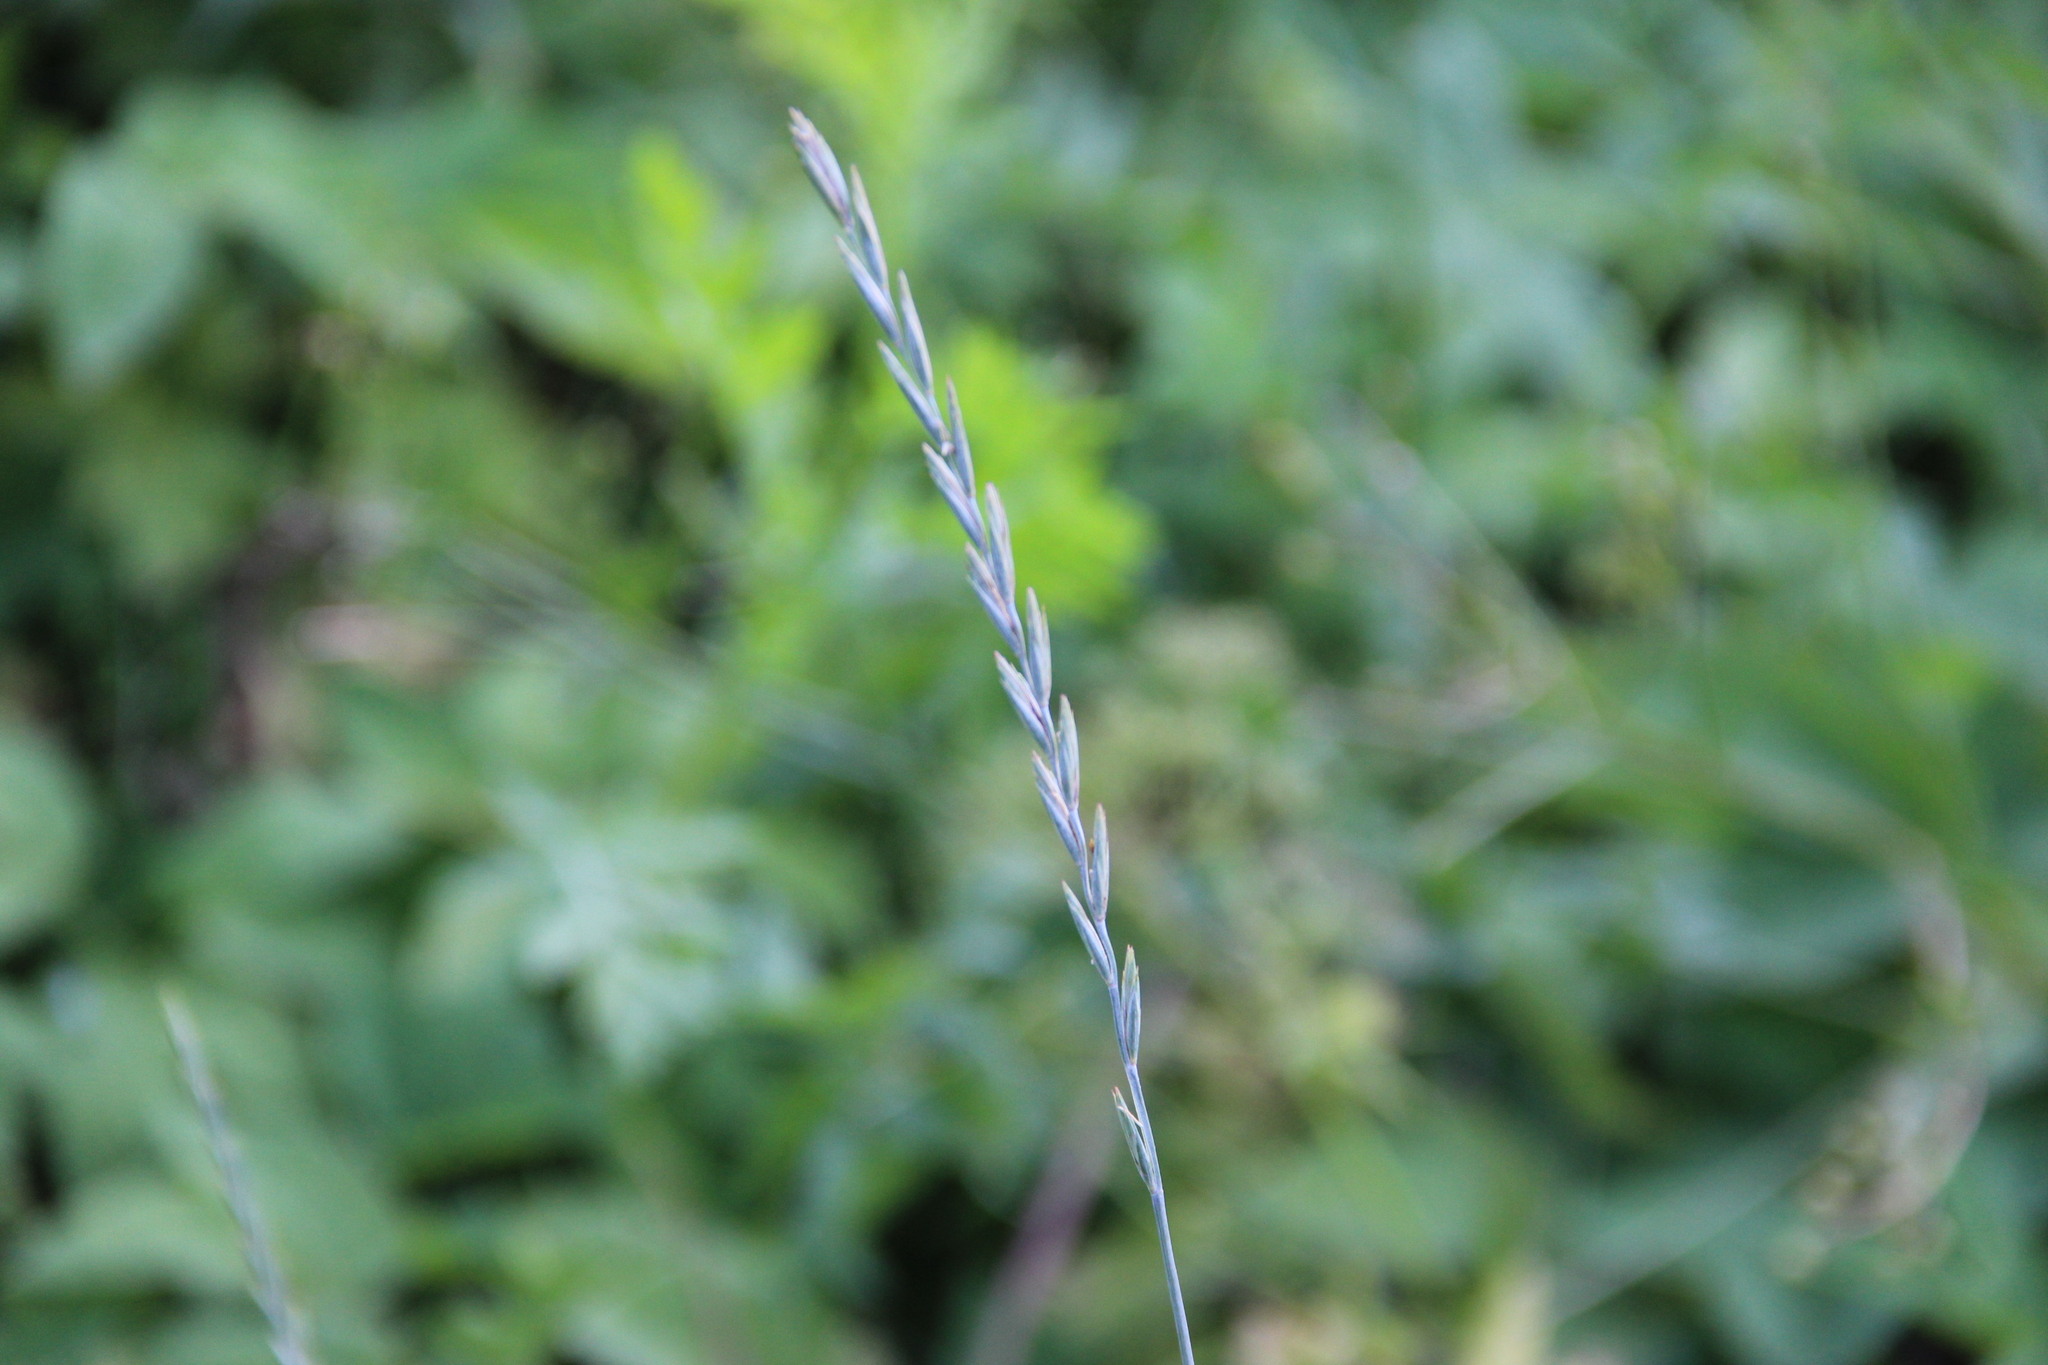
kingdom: Plantae
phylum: Tracheophyta
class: Liliopsida
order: Poales
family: Poaceae
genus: Elymus
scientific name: Elymus repens
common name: Quackgrass
